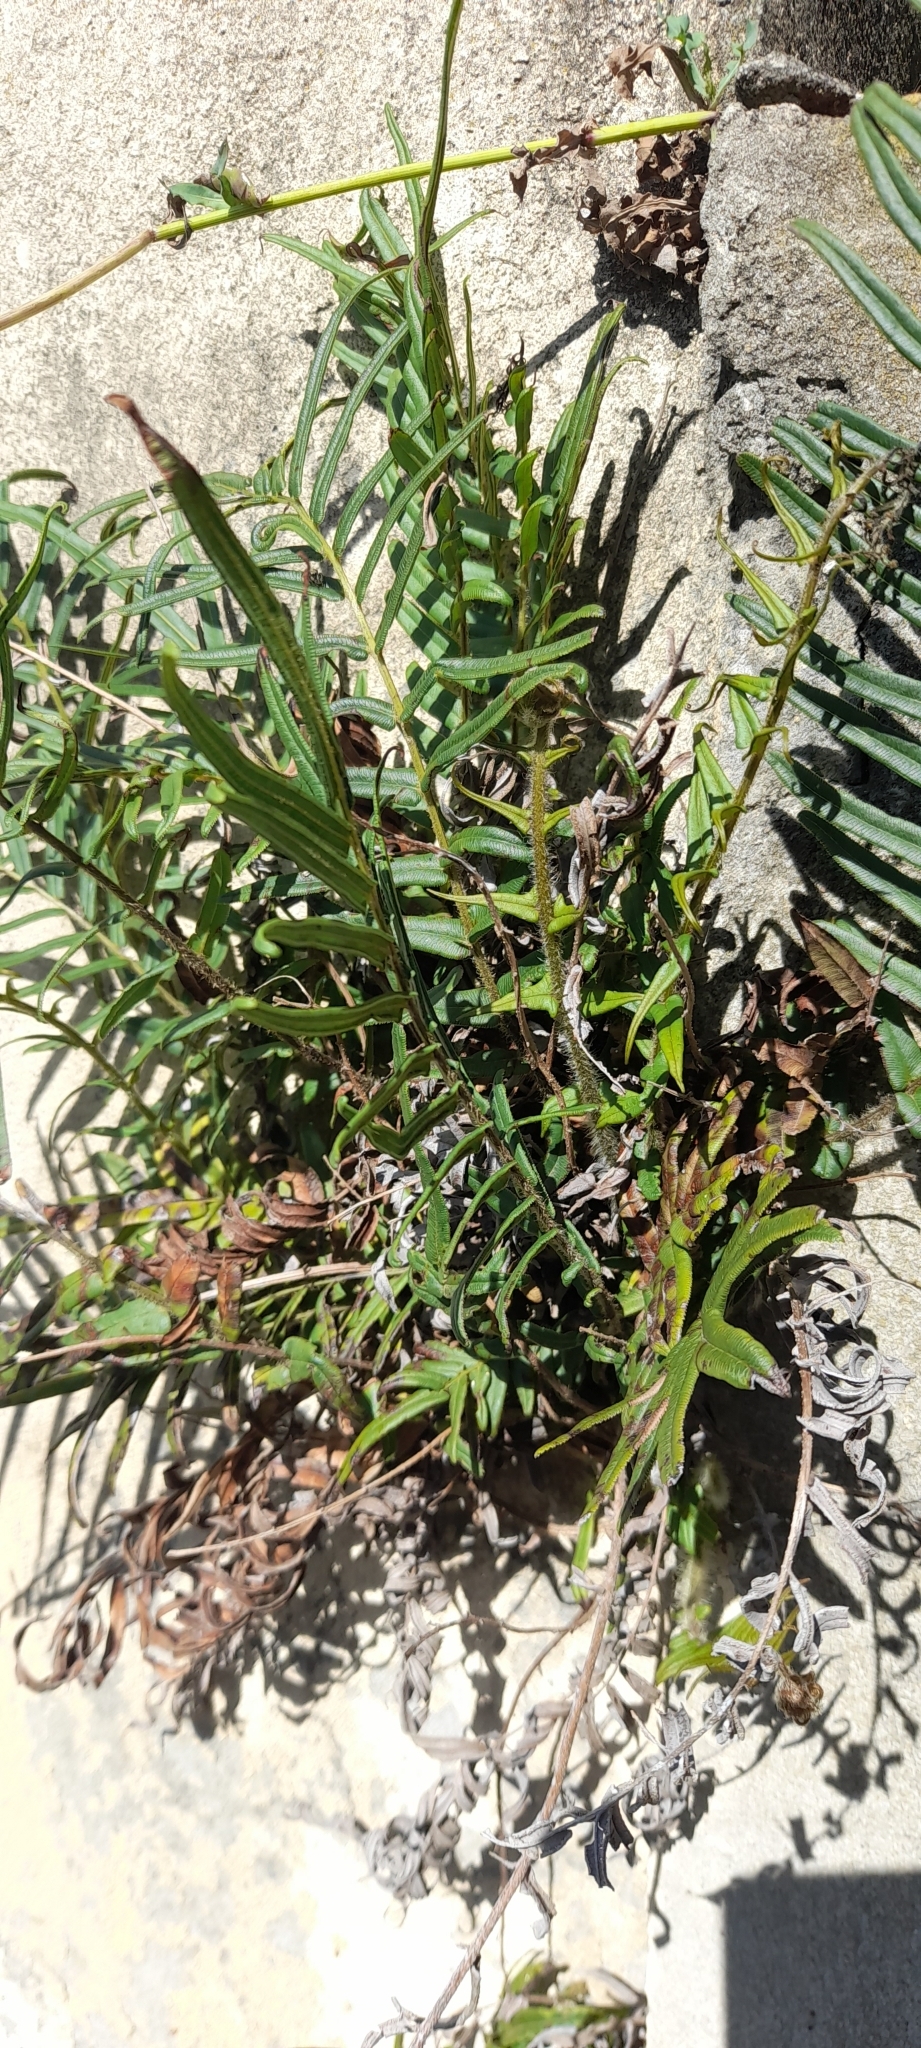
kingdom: Plantae
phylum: Tracheophyta
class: Polypodiopsida
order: Polypodiales
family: Pteridaceae
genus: Pteris
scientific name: Pteris vittata
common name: Ladder brake
